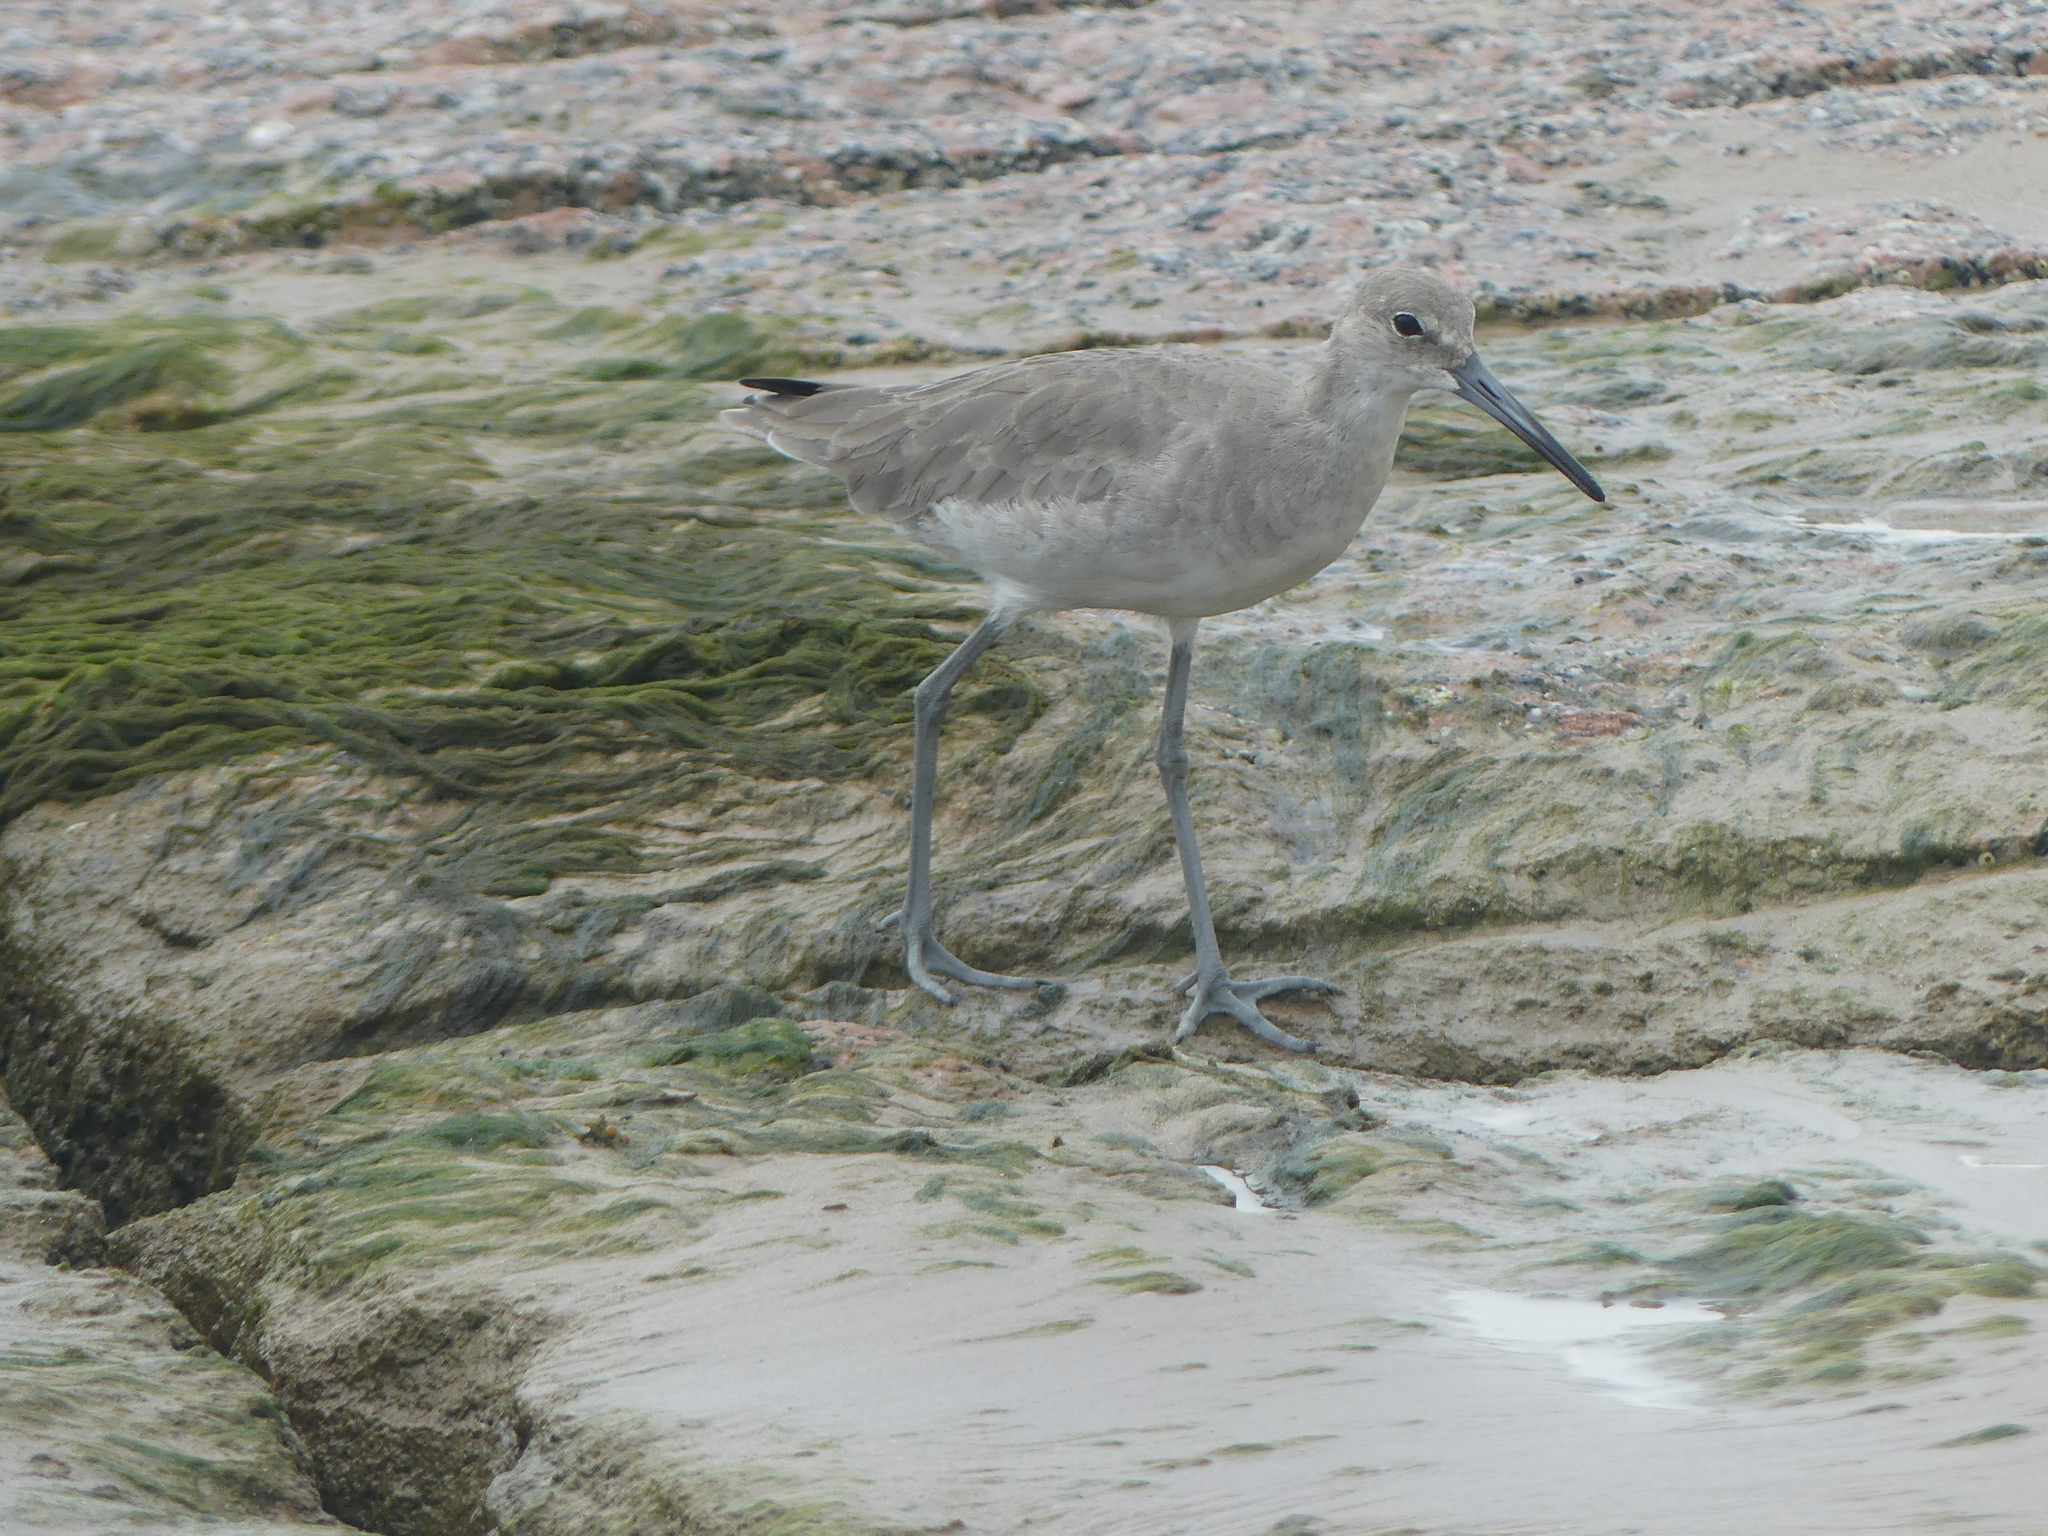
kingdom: Animalia
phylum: Chordata
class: Aves
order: Charadriiformes
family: Scolopacidae
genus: Tringa
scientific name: Tringa semipalmata
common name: Willet
